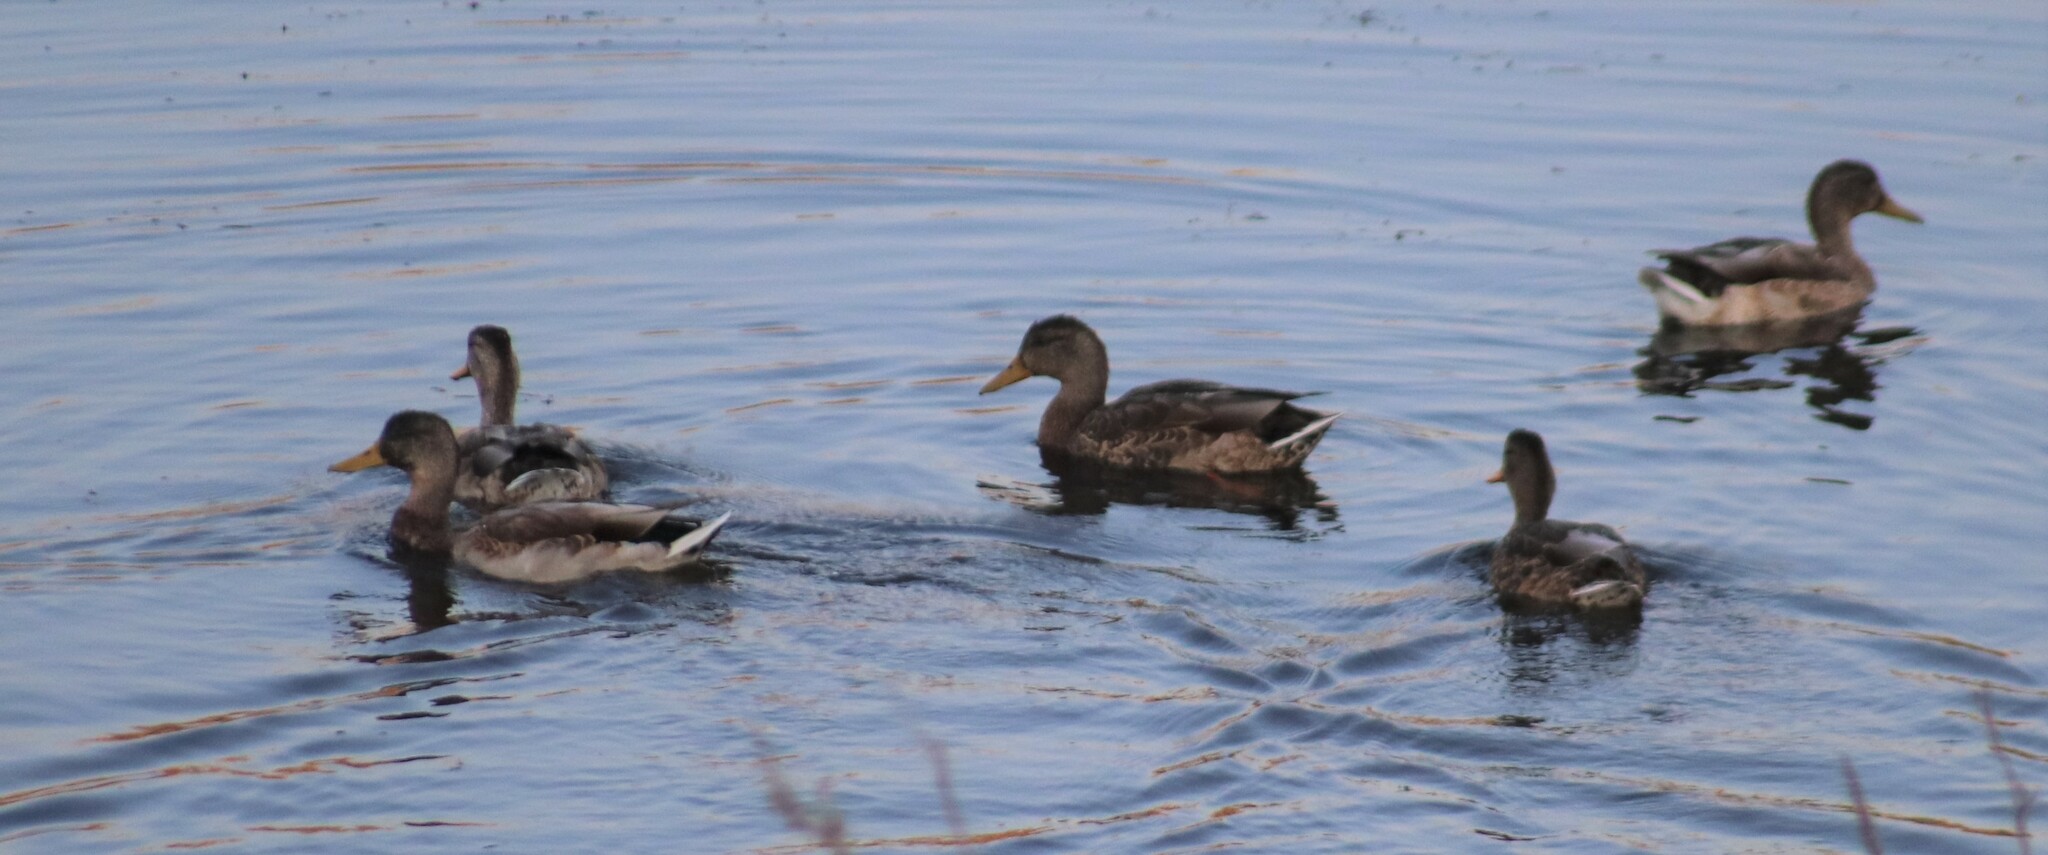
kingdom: Animalia
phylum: Chordata
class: Aves
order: Anseriformes
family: Anatidae
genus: Anas
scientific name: Anas platyrhynchos
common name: Mallard
